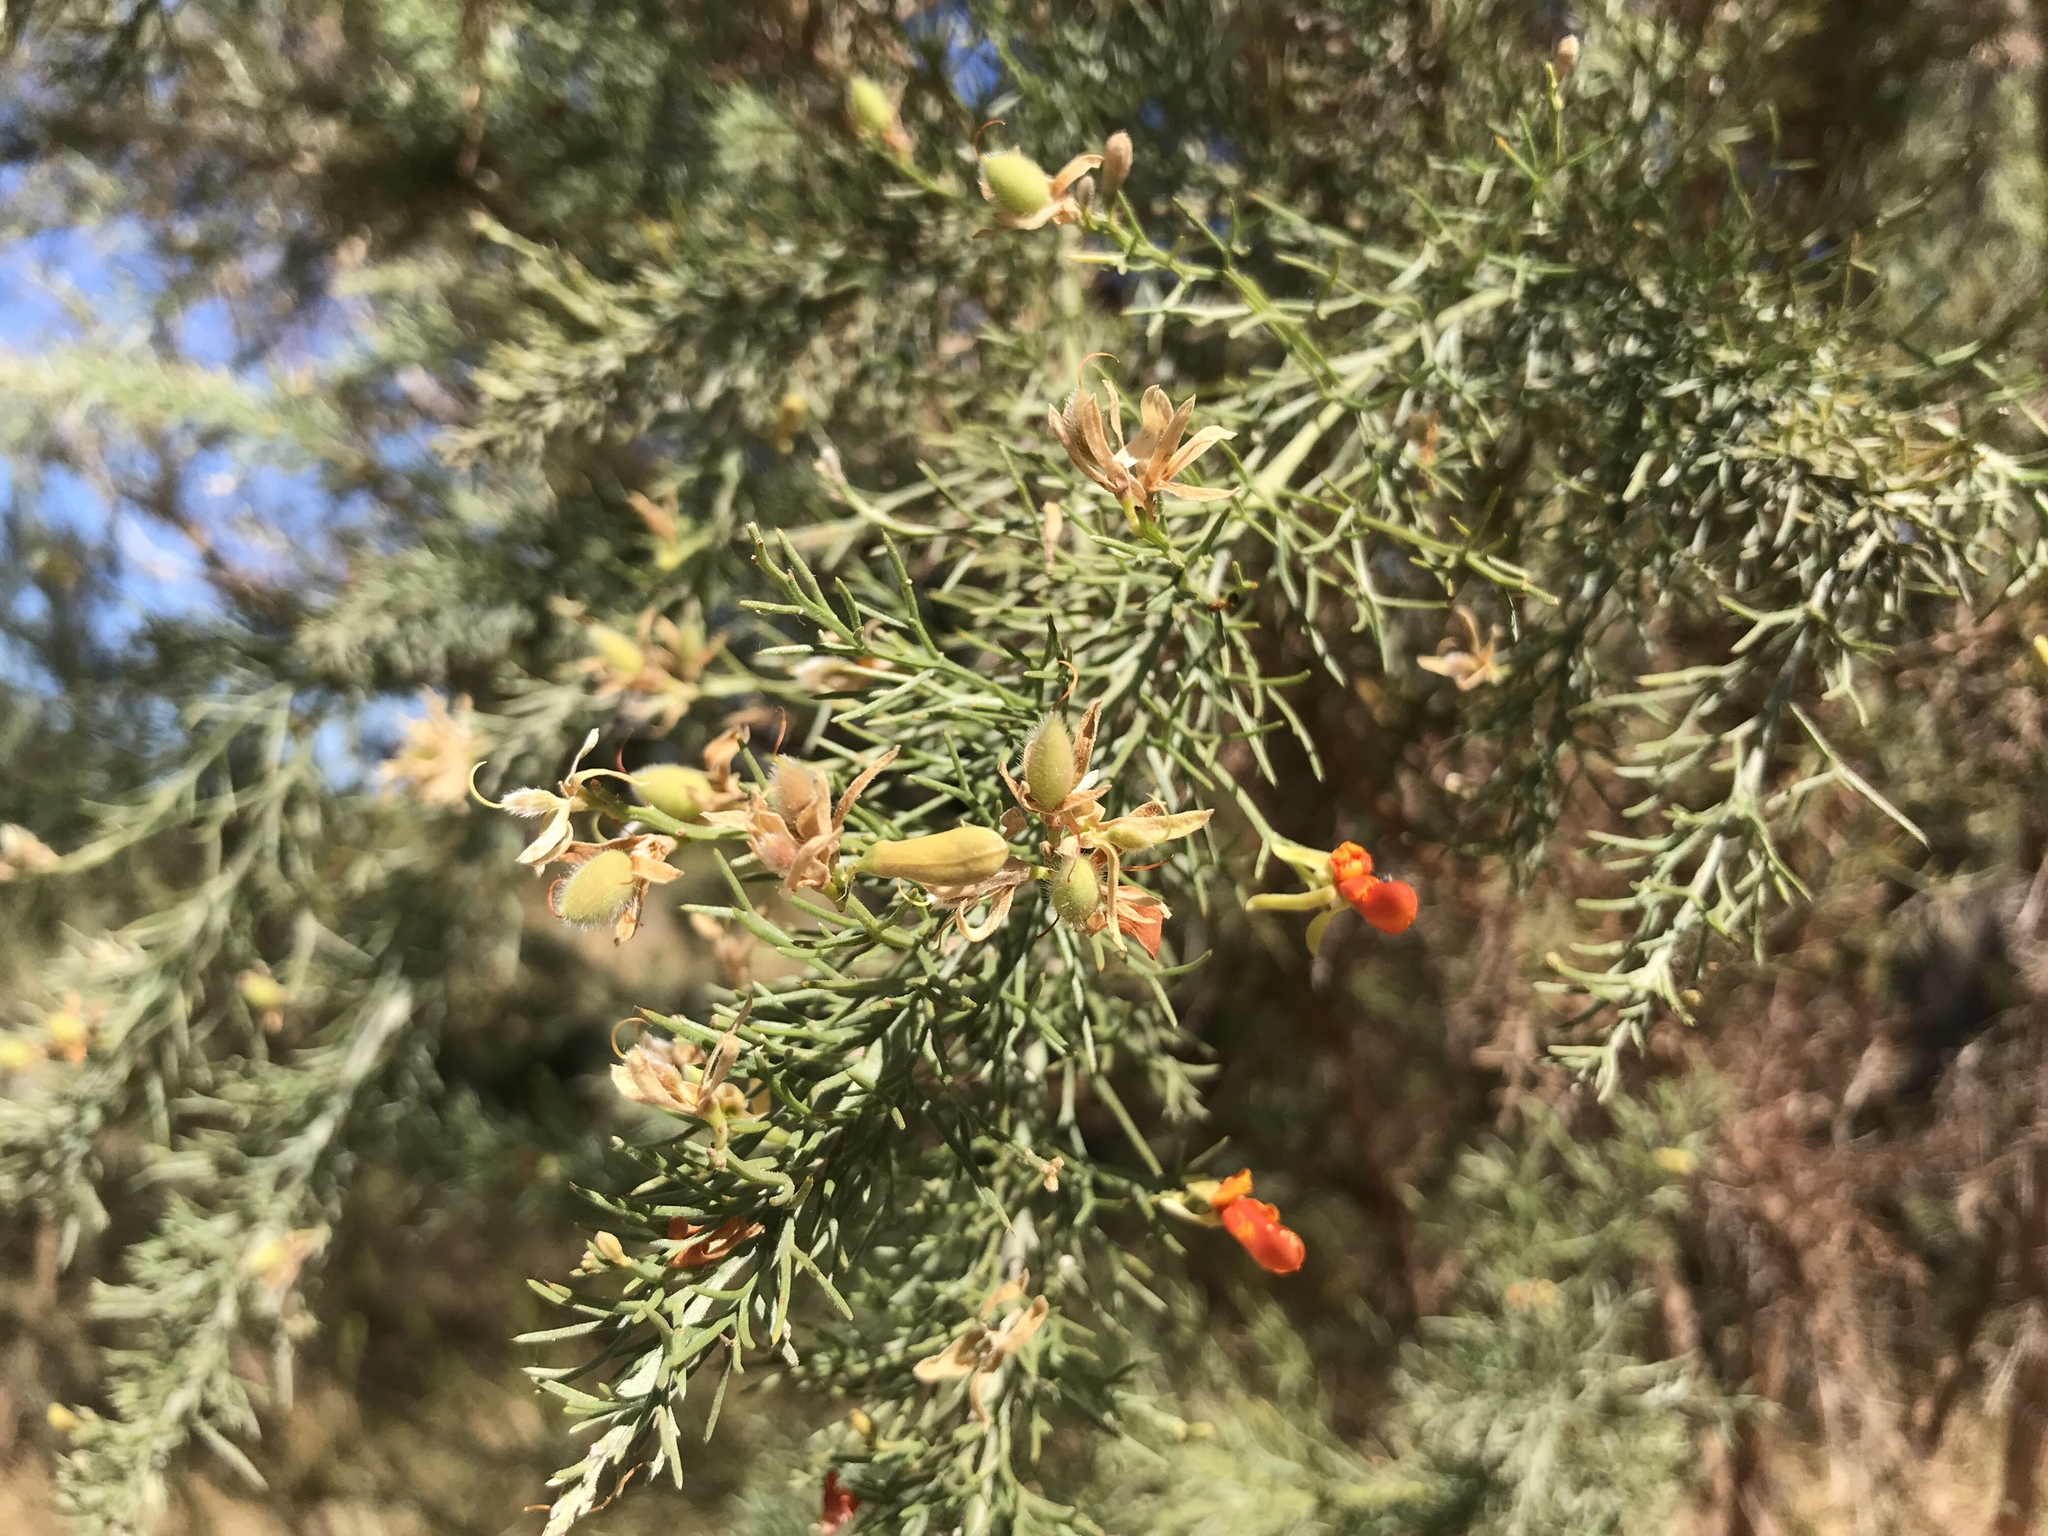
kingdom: Plantae
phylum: Tracheophyta
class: Magnoliopsida
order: Fabales
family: Fabaceae
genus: Jacksonia
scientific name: Jacksonia furcellata
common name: Grey stinkwood
